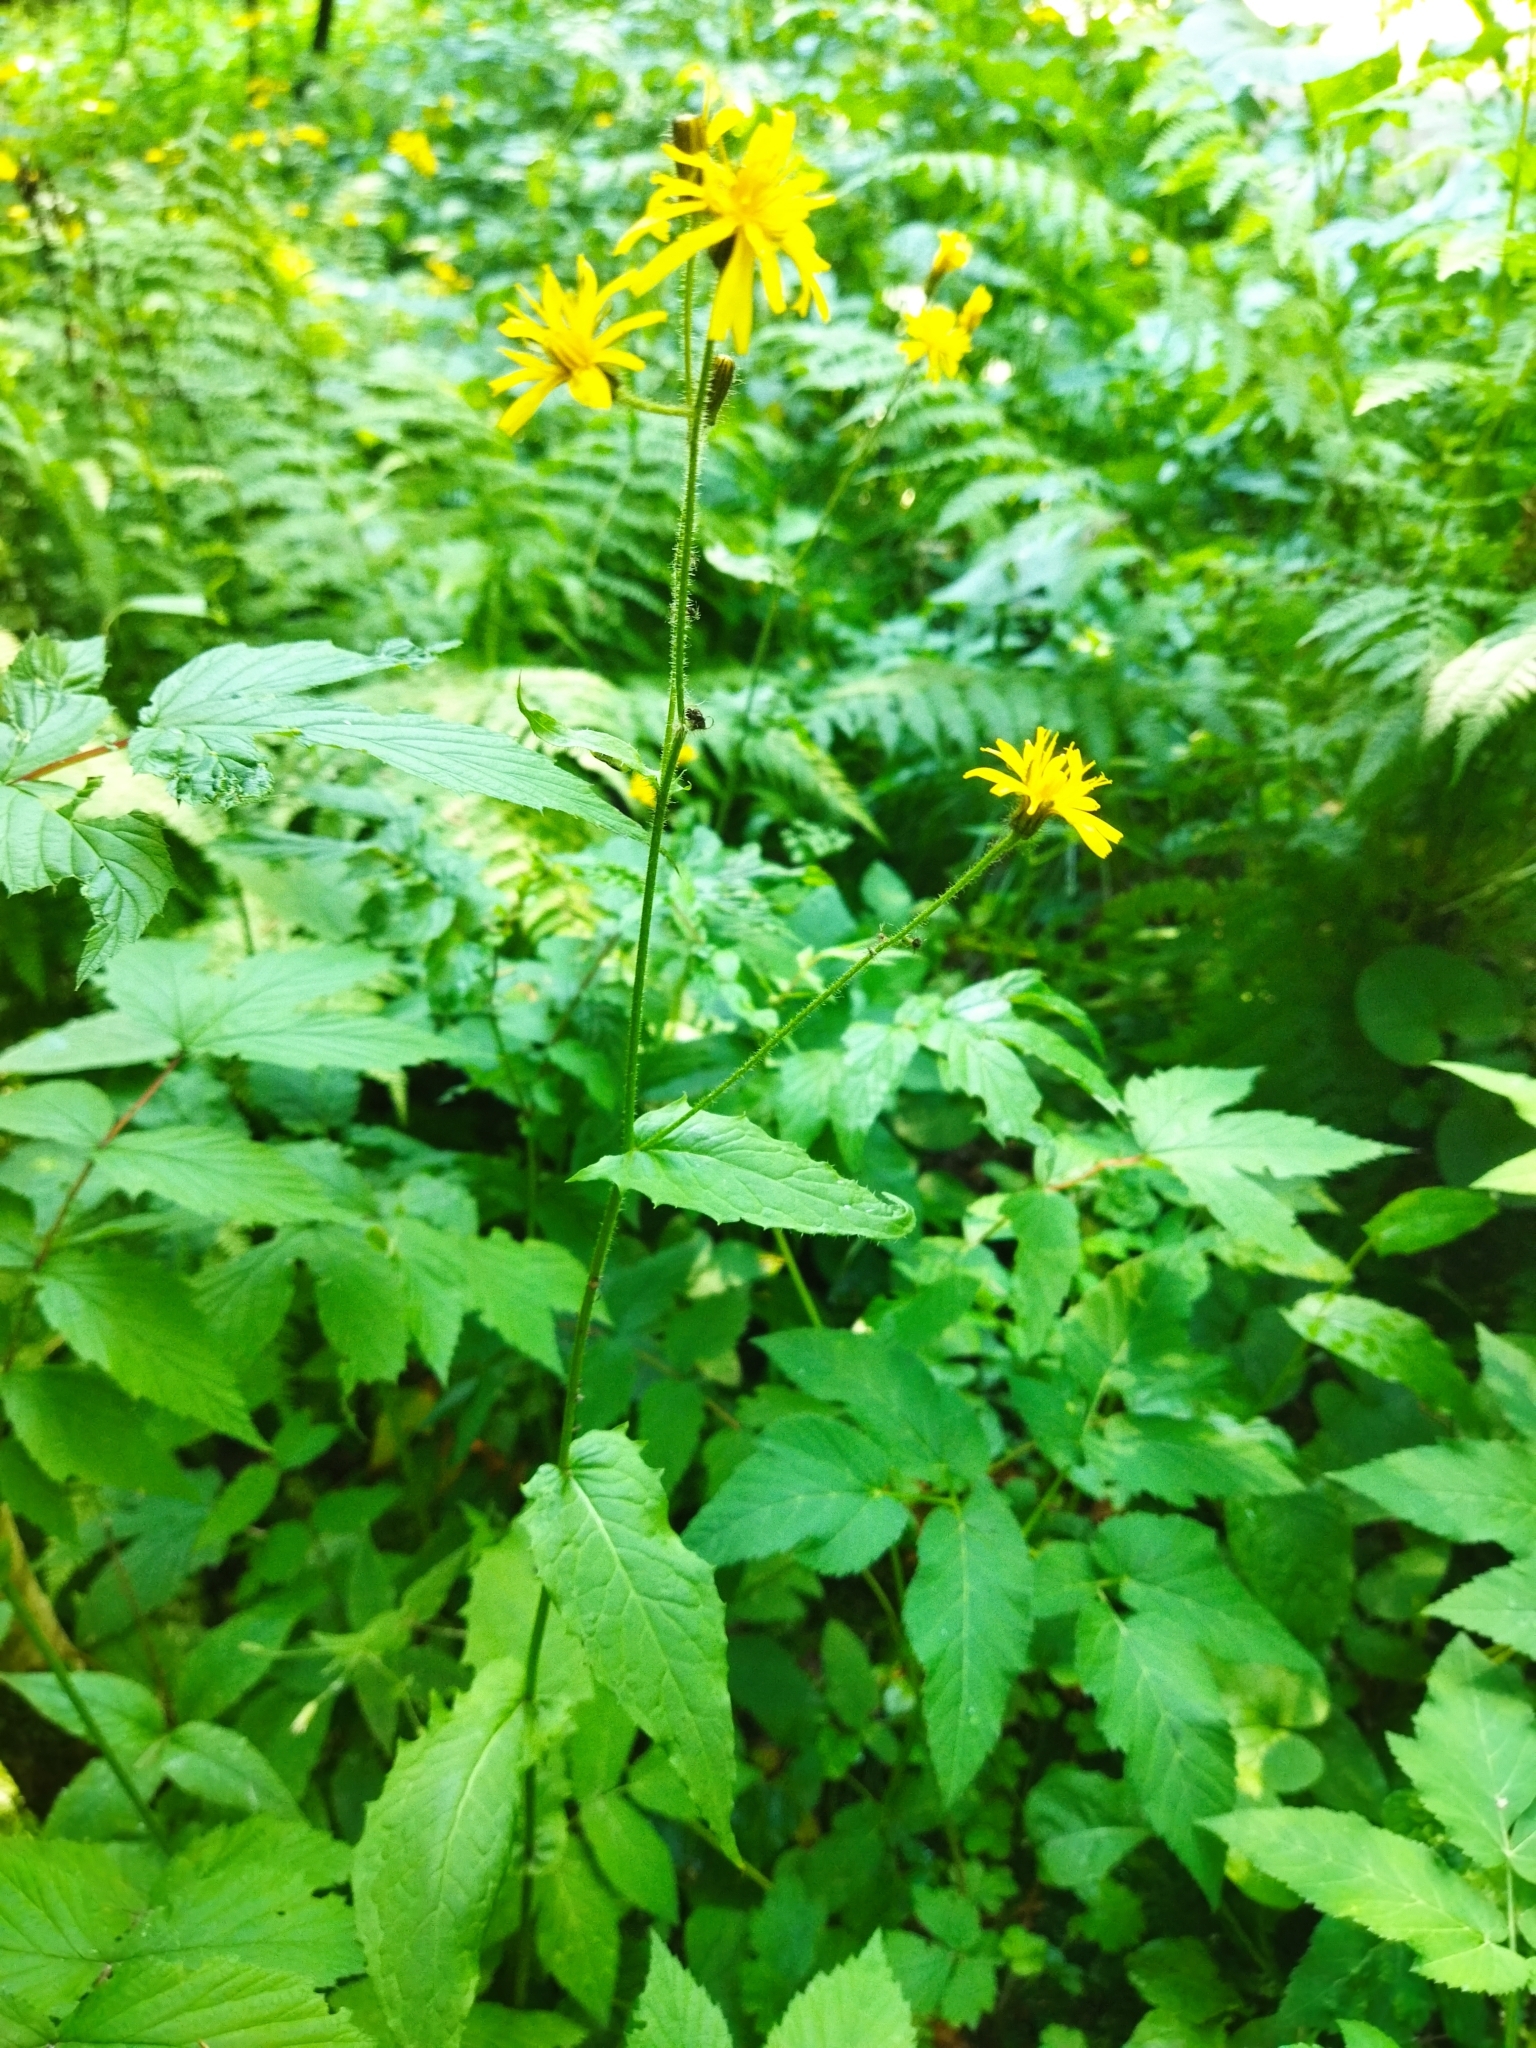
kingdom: Plantae
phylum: Tracheophyta
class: Magnoliopsida
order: Asterales
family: Asteraceae
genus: Crepis
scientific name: Crepis paludosa
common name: Marsh hawk's-beard
